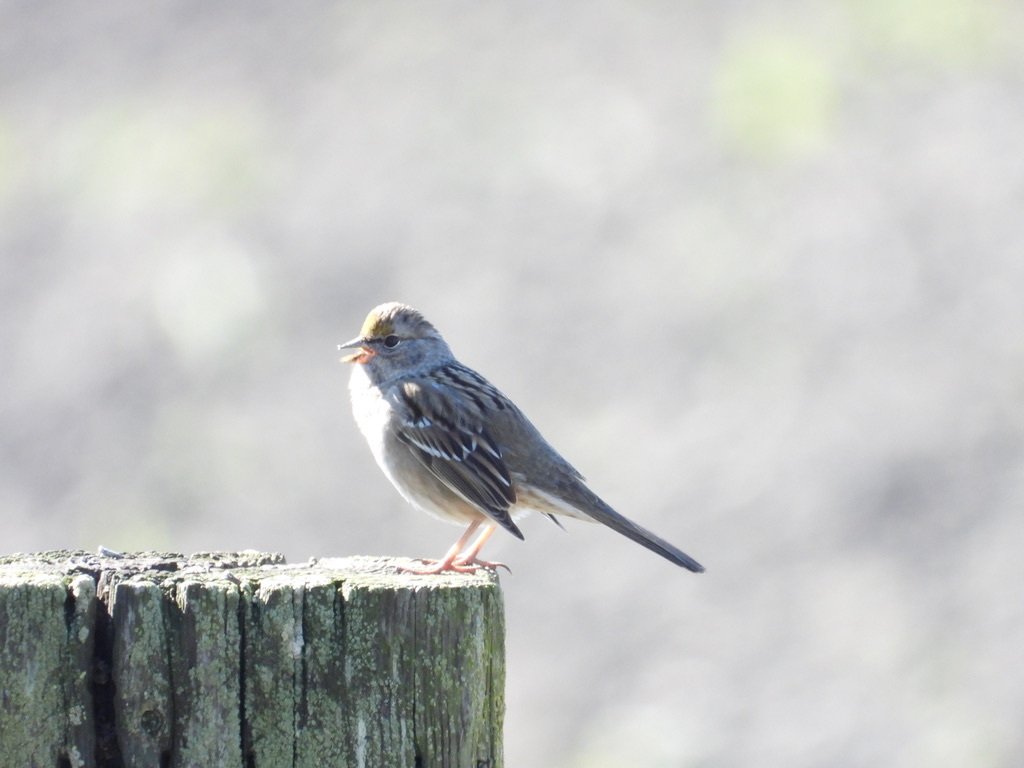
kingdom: Animalia
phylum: Chordata
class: Aves
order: Passeriformes
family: Passerellidae
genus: Zonotrichia
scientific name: Zonotrichia atricapilla
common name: Golden-crowned sparrow
